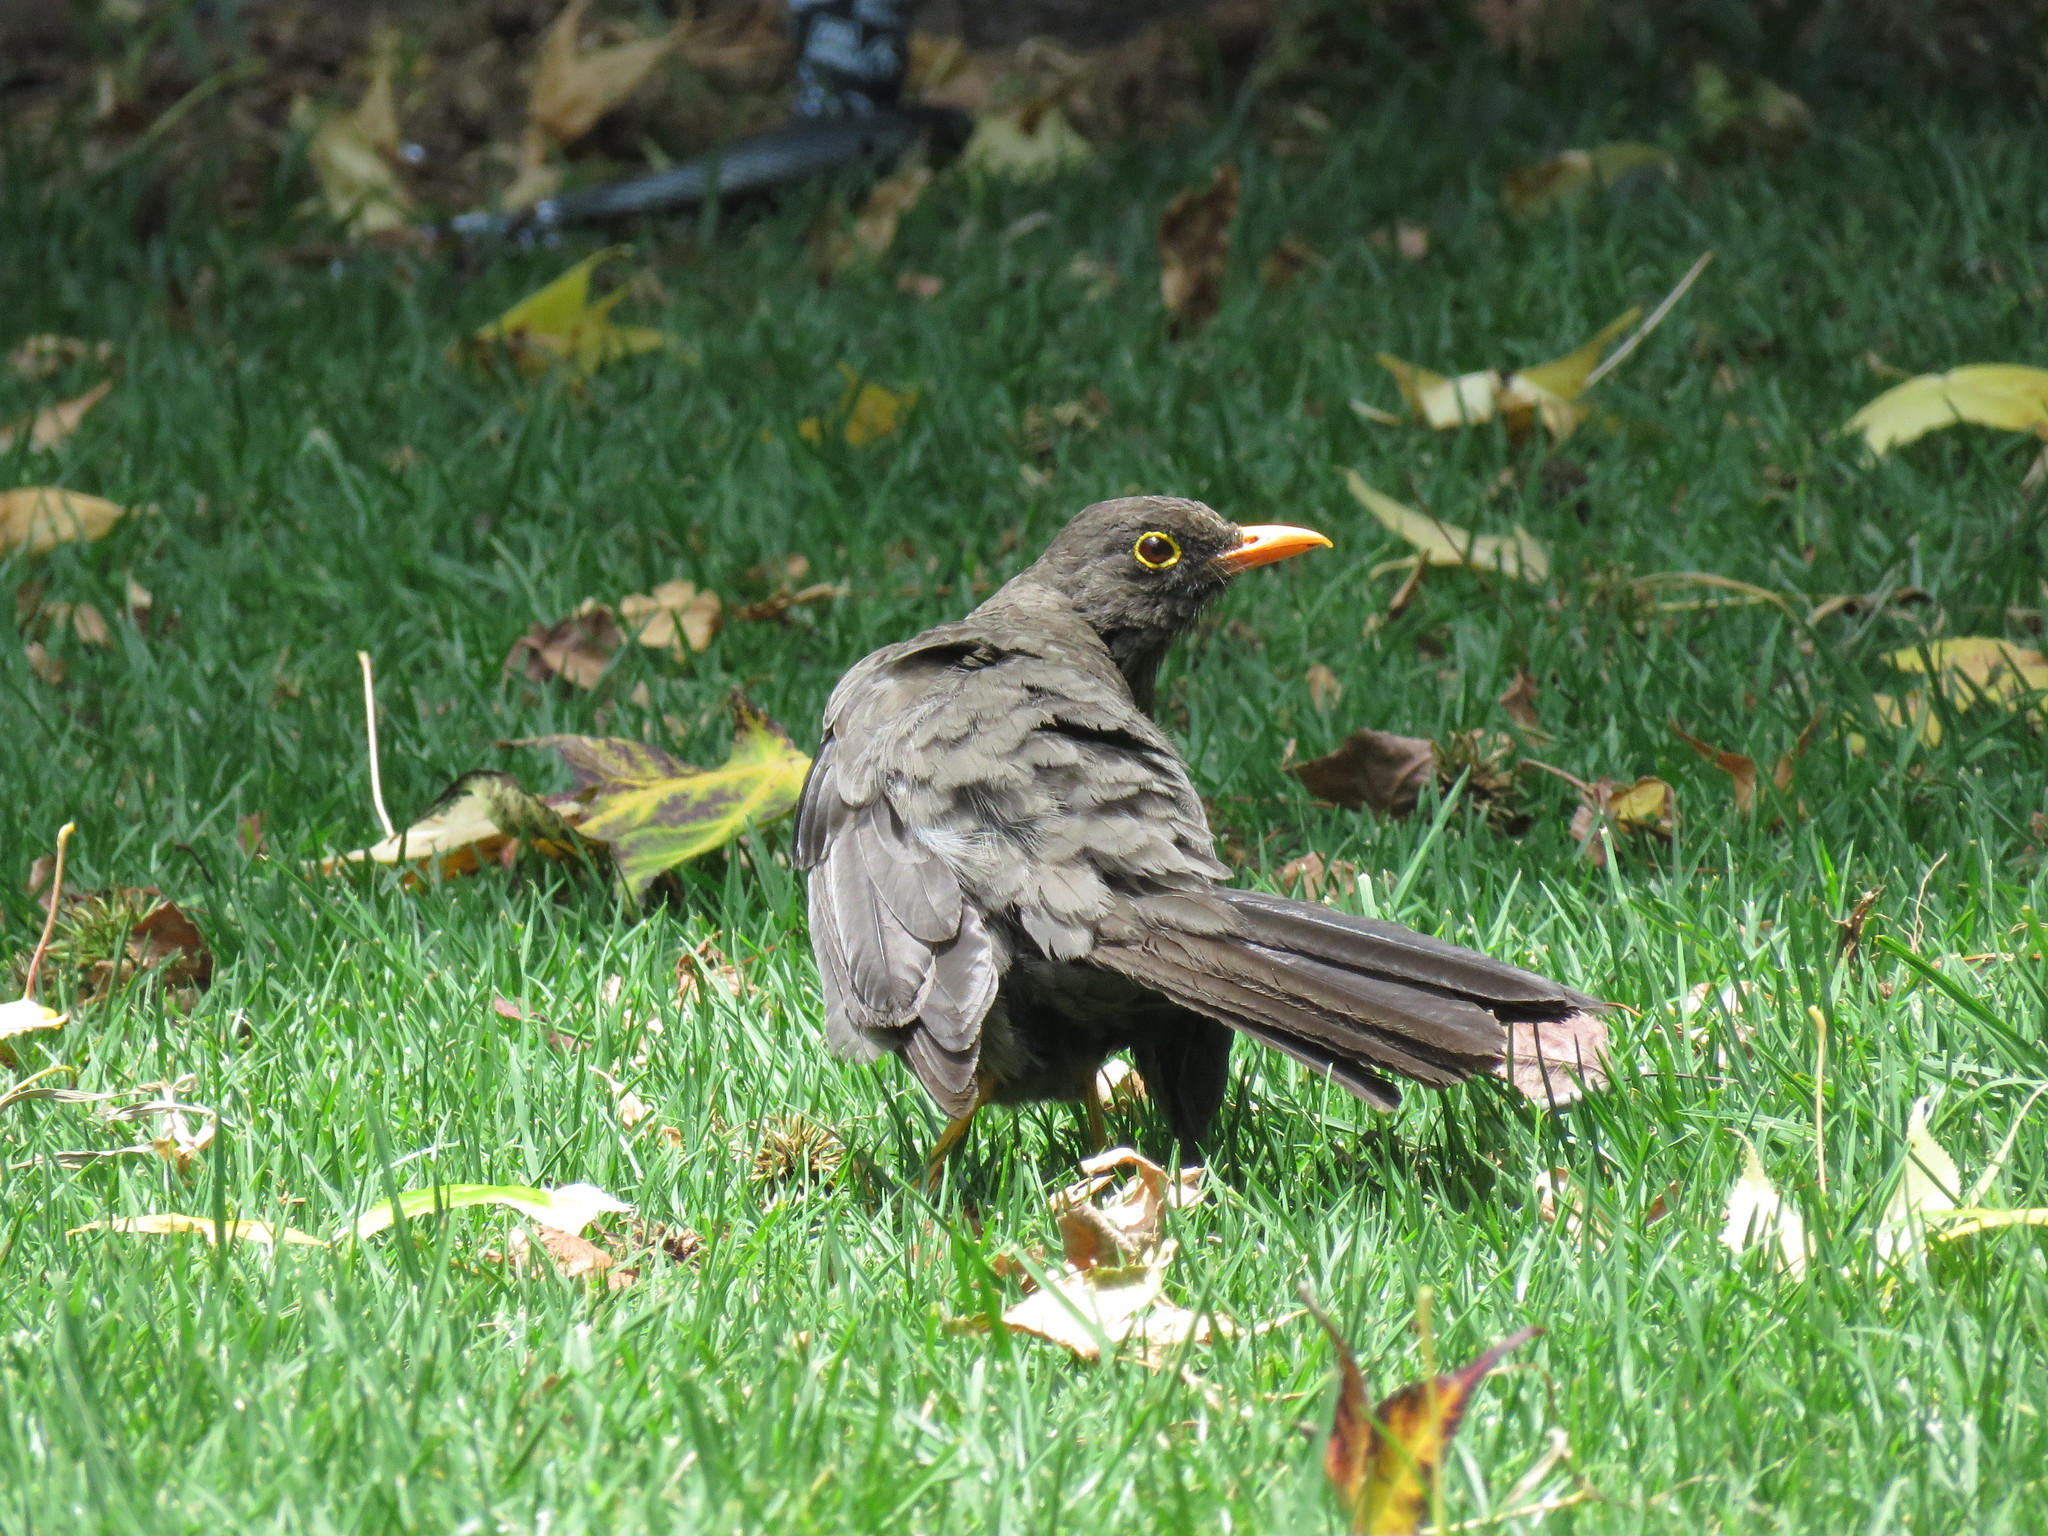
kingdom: Animalia
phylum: Chordata
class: Aves
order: Passeriformes
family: Turdidae
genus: Turdus
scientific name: Turdus fuscater
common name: Great thrush
